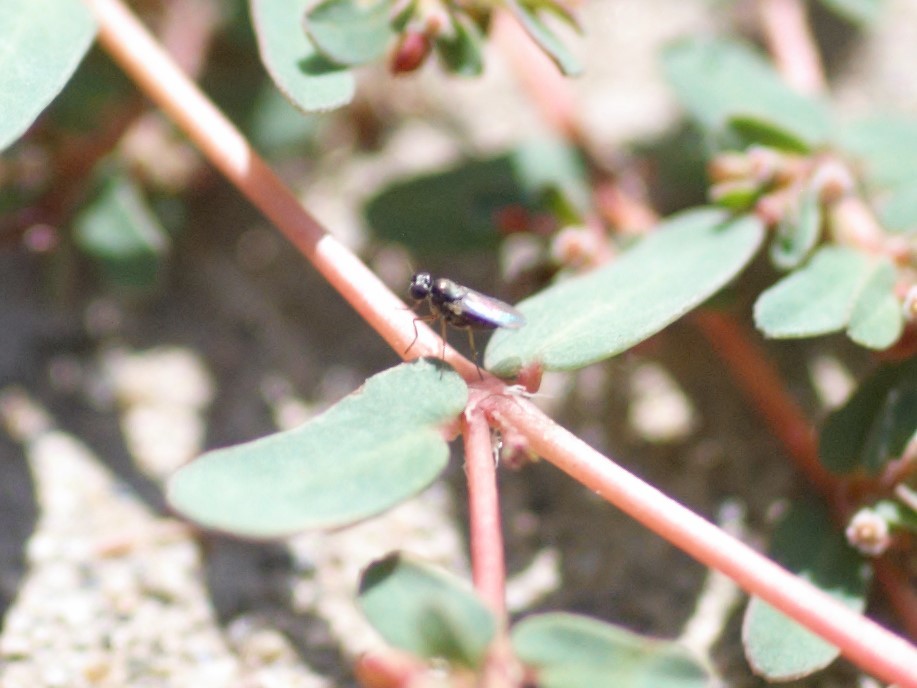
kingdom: Animalia
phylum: Arthropoda
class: Insecta
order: Diptera
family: Dolichopodidae
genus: Achradocera
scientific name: Achradocera
